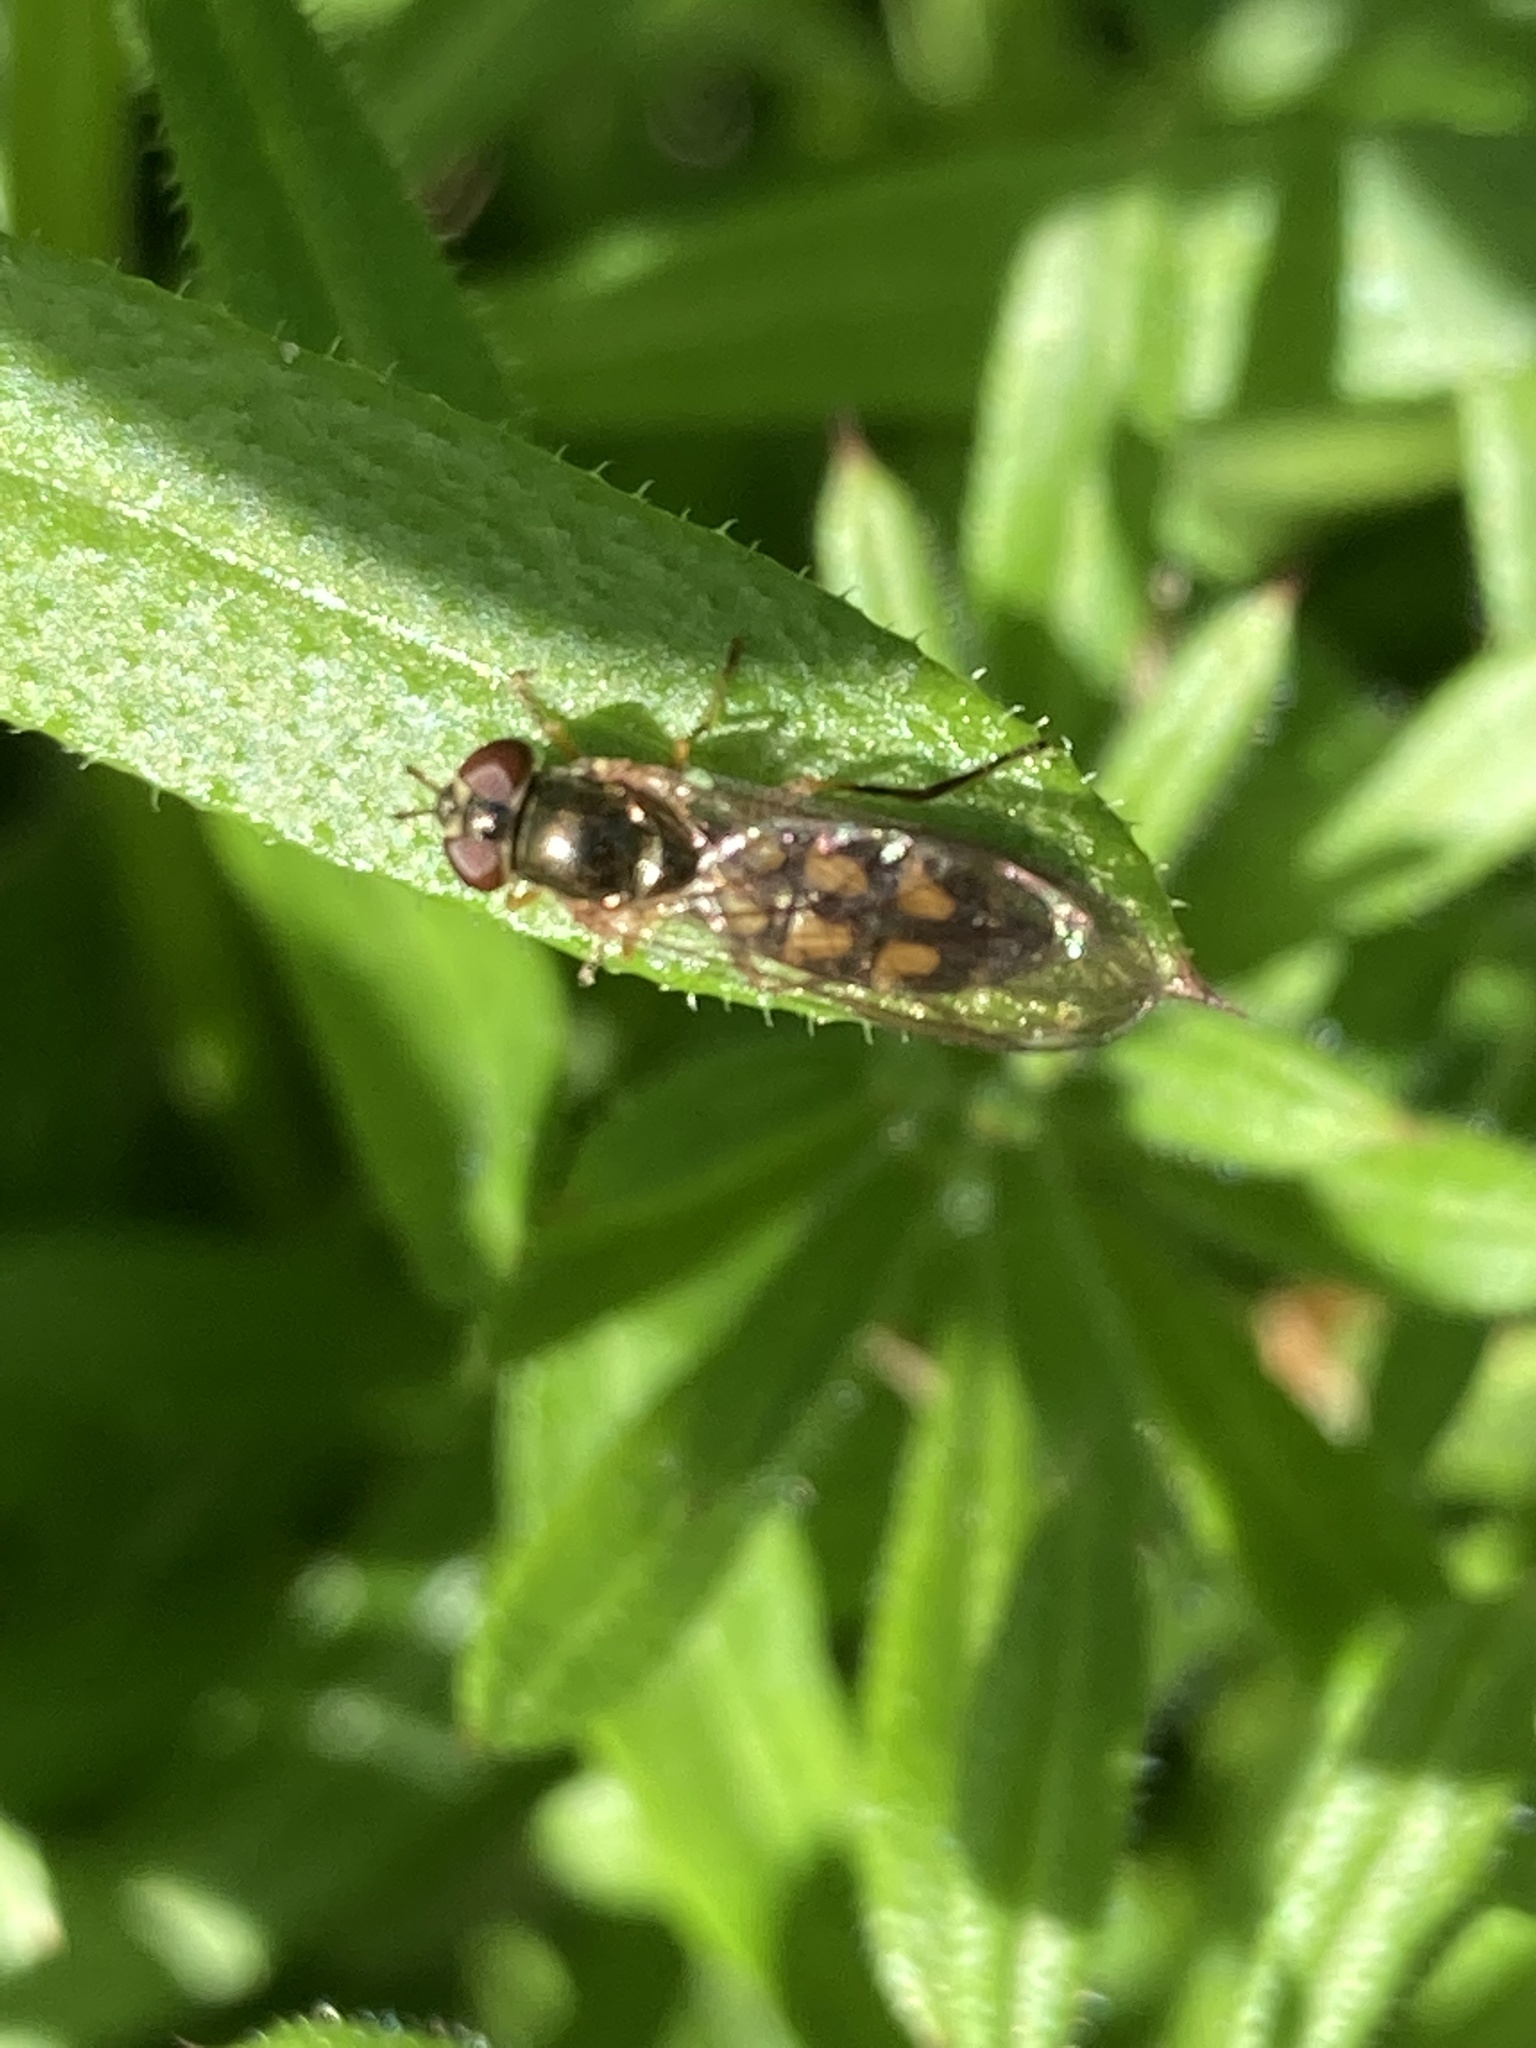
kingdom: Animalia
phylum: Arthropoda
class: Insecta
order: Diptera
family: Syrphidae
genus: Melanostoma
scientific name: Melanostoma scalare
